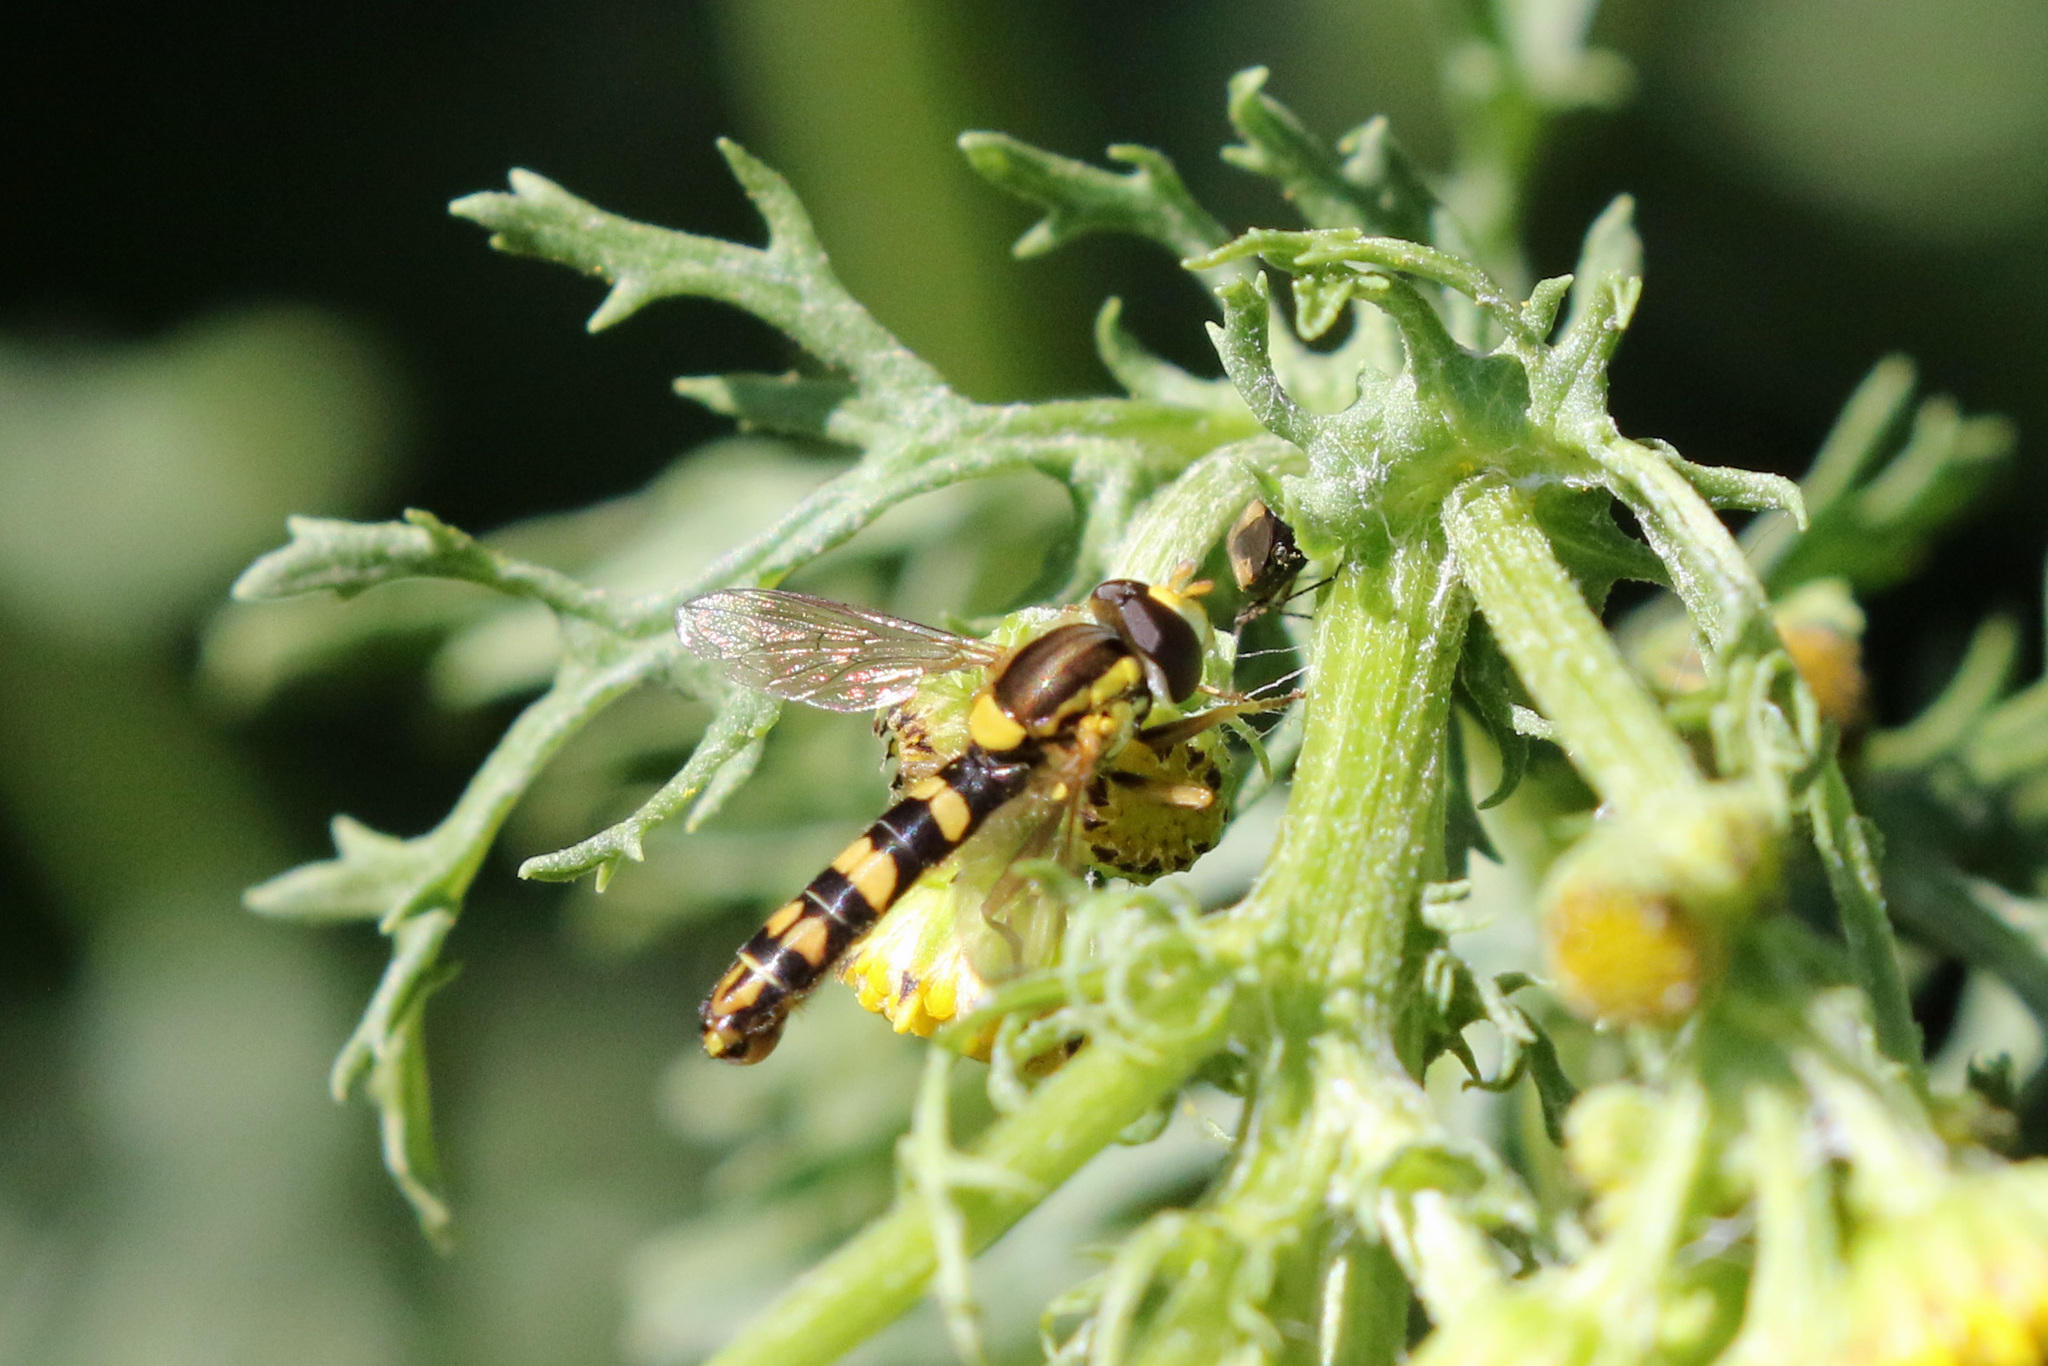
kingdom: Animalia
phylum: Arthropoda
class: Insecta
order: Diptera
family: Syrphidae
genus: Sphaerophoria
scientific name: Sphaerophoria scripta
